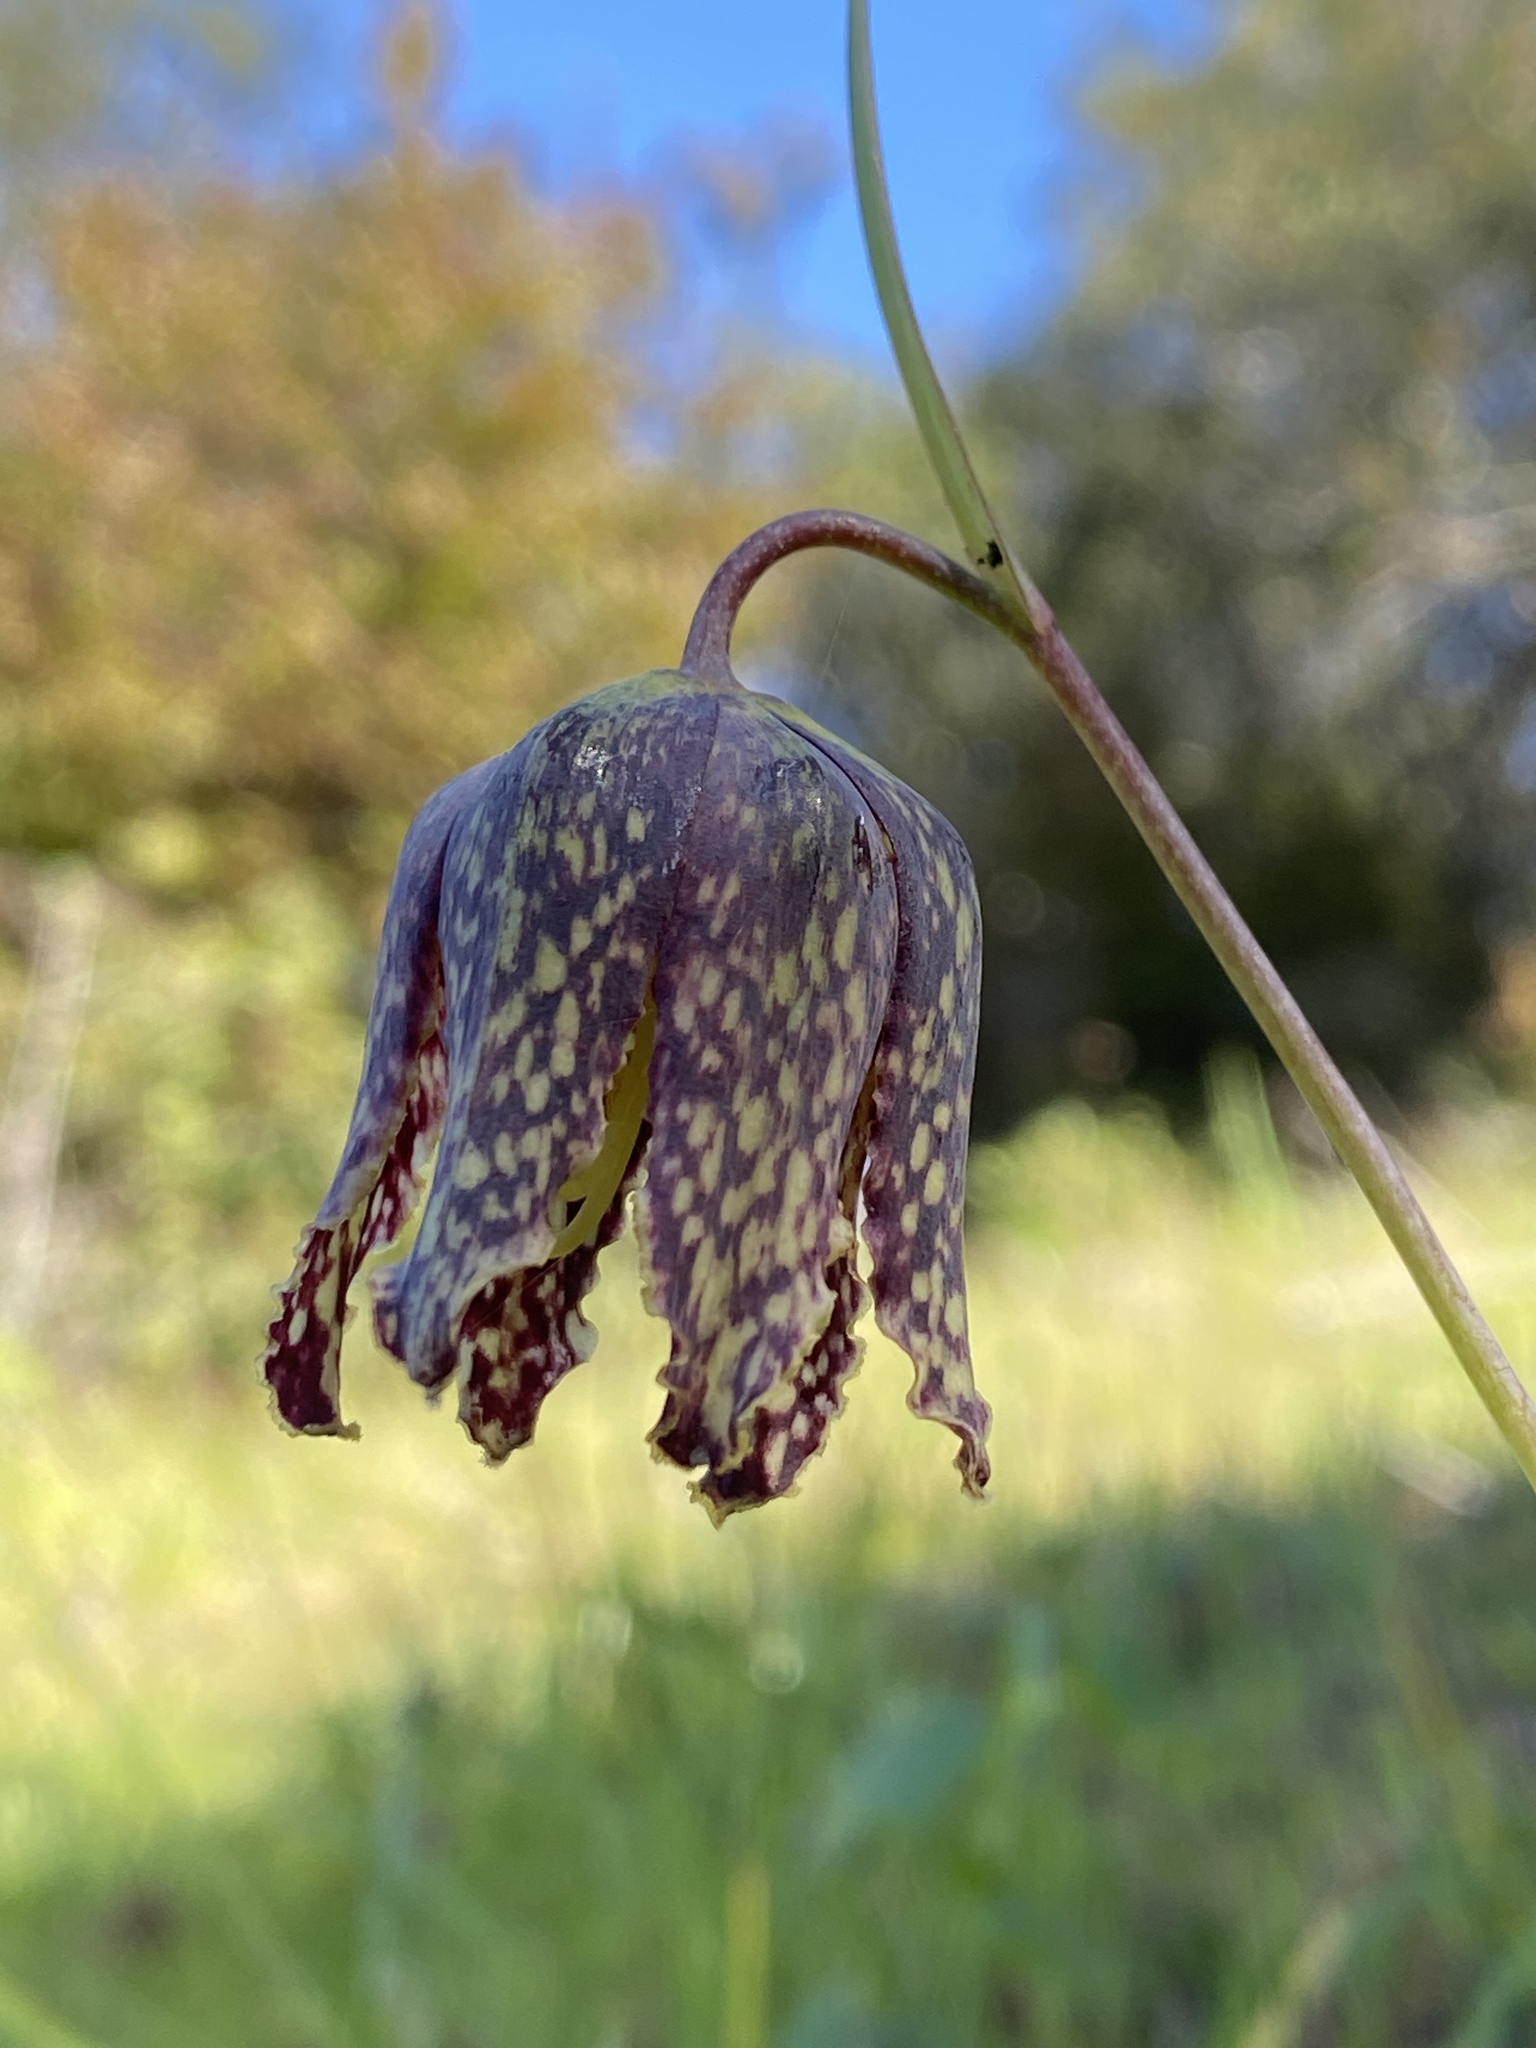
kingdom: Plantae
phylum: Tracheophyta
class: Liliopsida
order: Liliales
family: Liliaceae
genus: Fritillaria
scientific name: Fritillaria affinis
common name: Ojai fritillary
